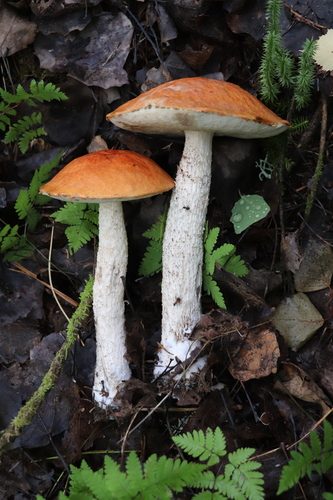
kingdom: Fungi
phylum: Basidiomycota
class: Agaricomycetes
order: Boletales
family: Boletaceae
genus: Leccinum
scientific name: Leccinum albostipitatum
